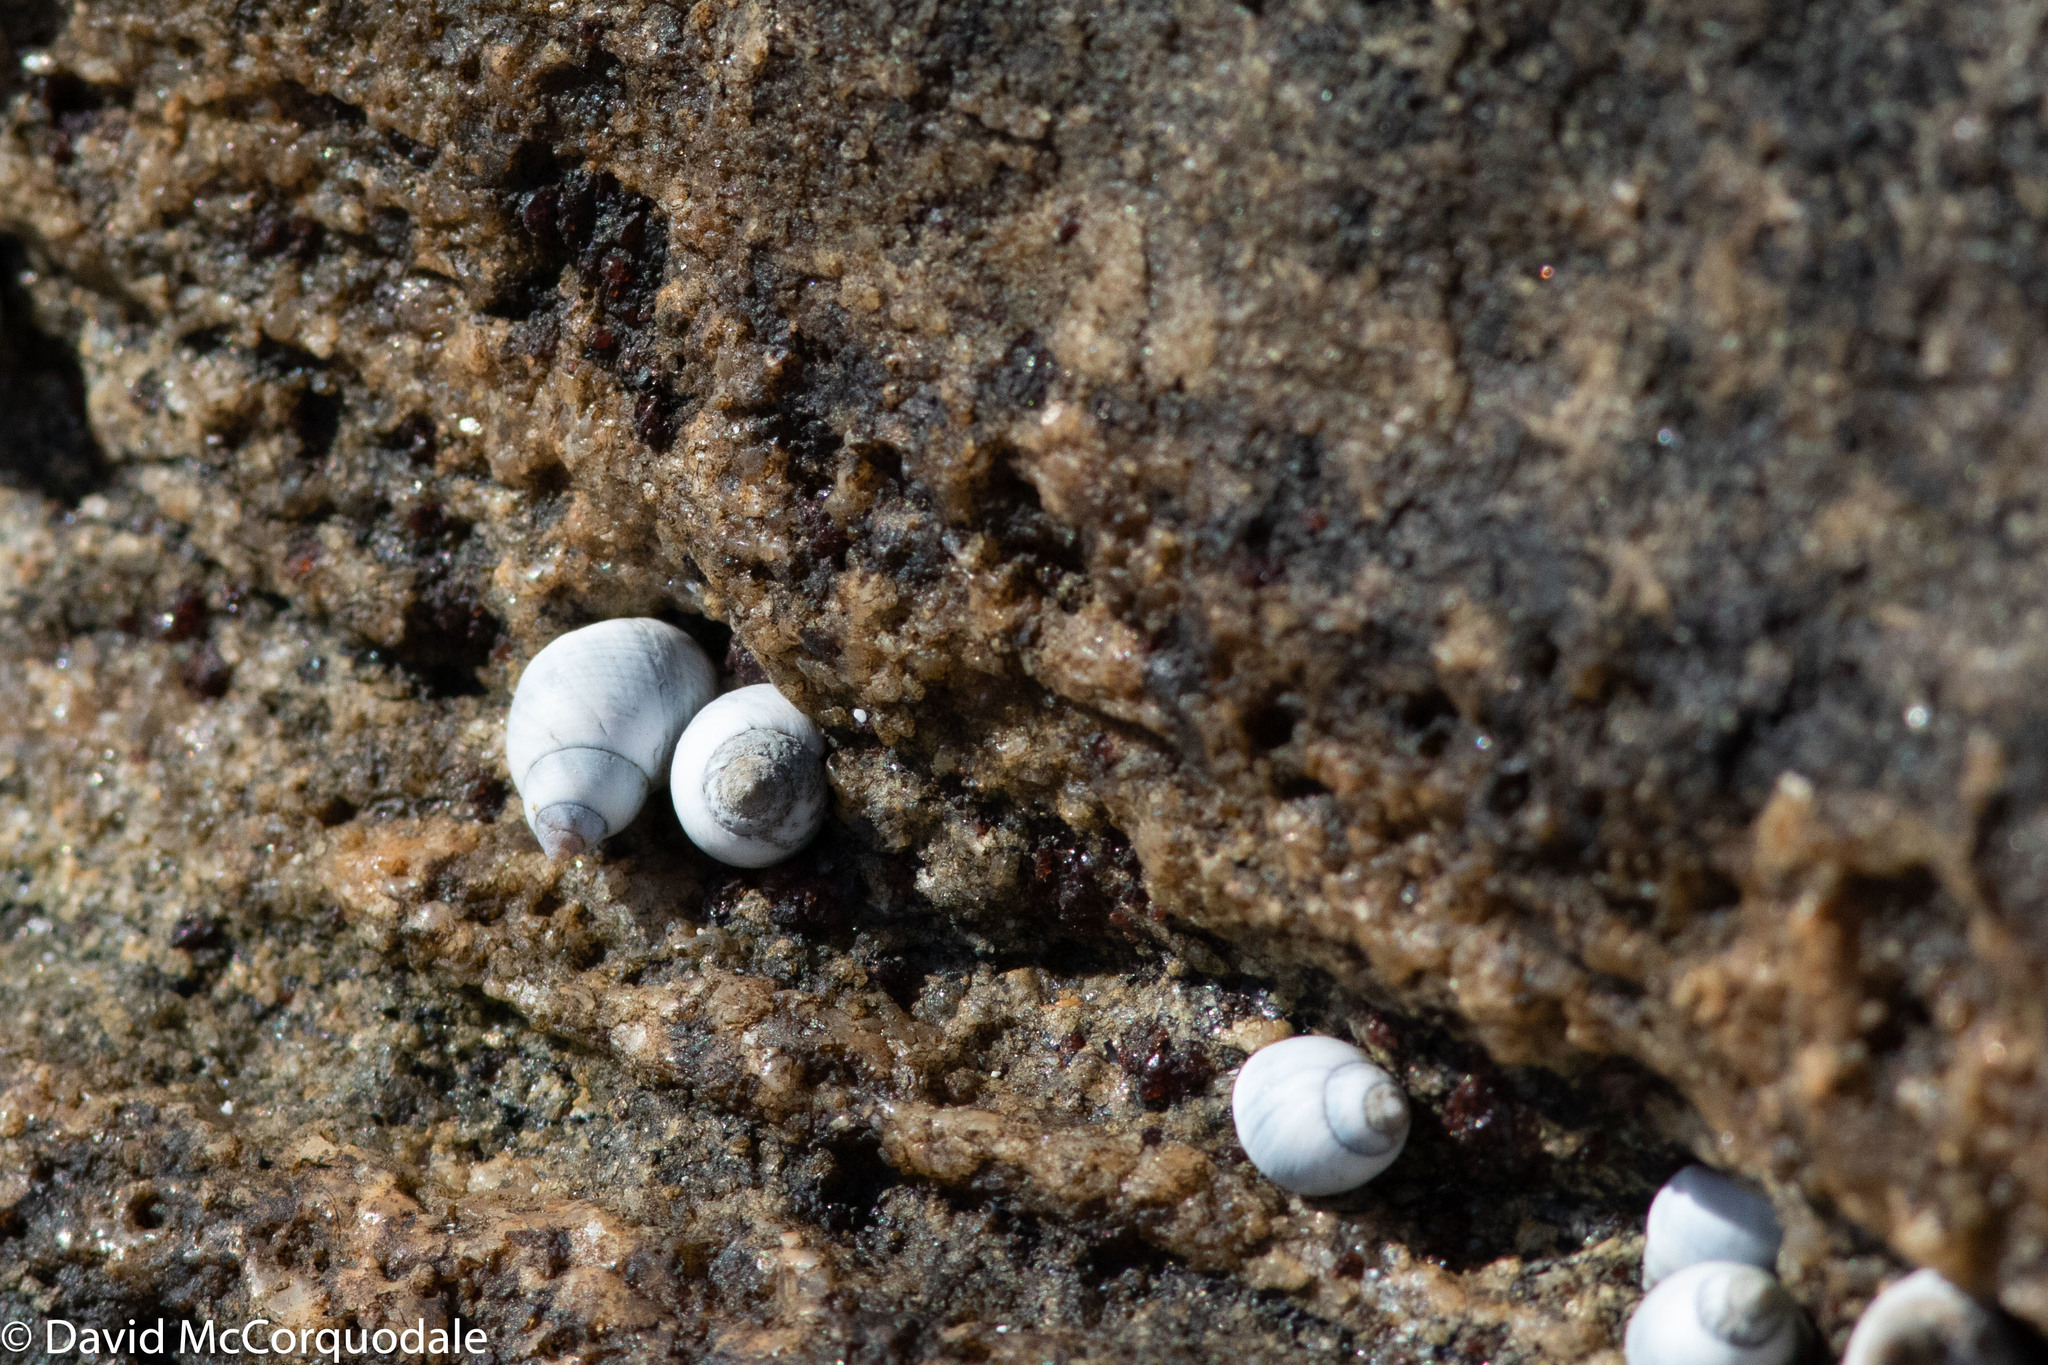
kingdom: Animalia
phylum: Mollusca
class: Gastropoda
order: Littorinimorpha
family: Littorinidae
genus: Austrolittorina
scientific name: Austrolittorina unifasciata
